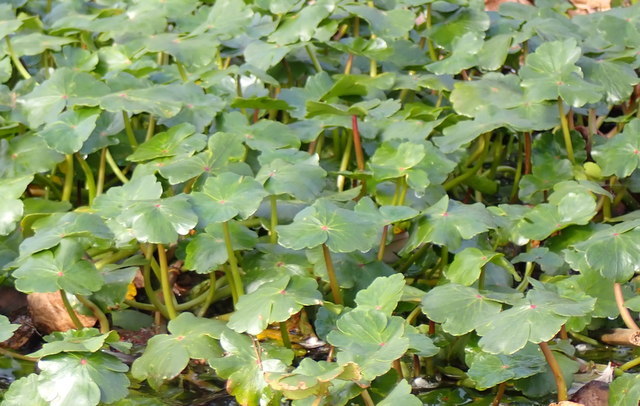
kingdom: Plantae
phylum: Tracheophyta
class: Magnoliopsida
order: Apiales
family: Araliaceae
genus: Hydrocotyle
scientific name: Hydrocotyle ranunculoides
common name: Floating pennywort
